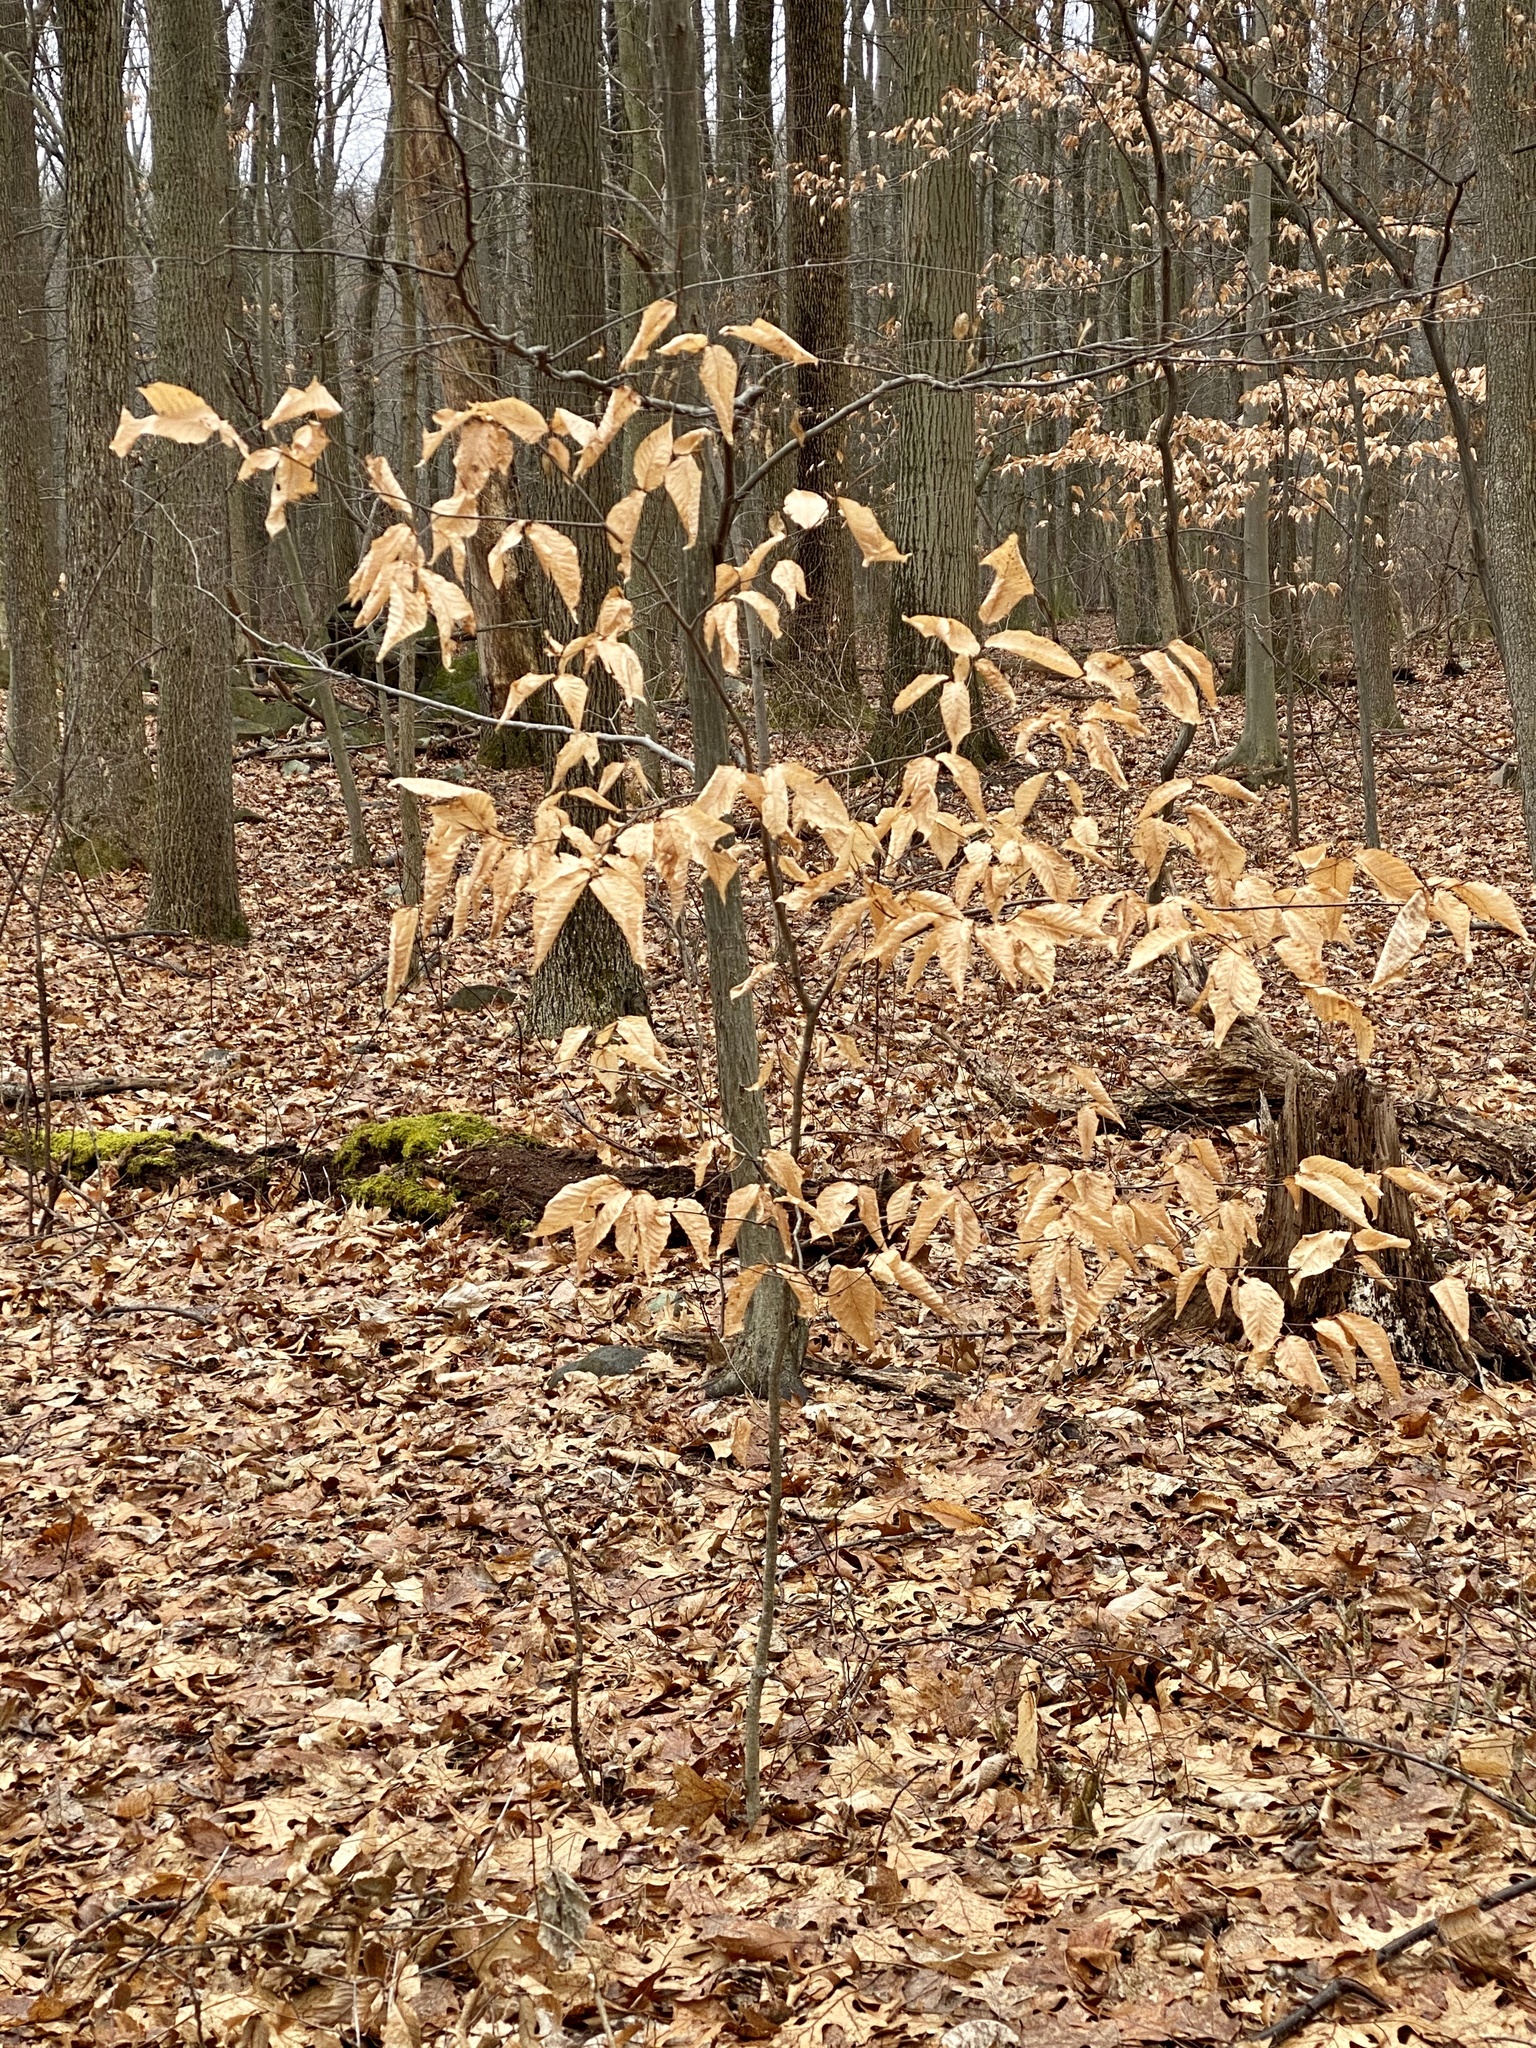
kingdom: Plantae
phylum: Tracheophyta
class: Magnoliopsida
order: Fagales
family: Fagaceae
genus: Fagus
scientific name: Fagus grandifolia
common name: American beech
